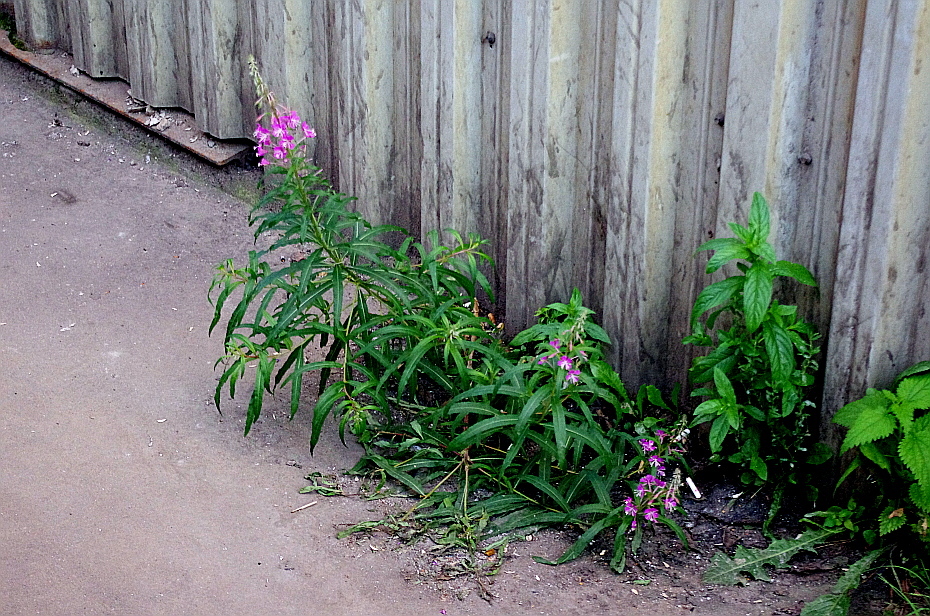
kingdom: Plantae
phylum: Tracheophyta
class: Magnoliopsida
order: Myrtales
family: Onagraceae
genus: Chamaenerion
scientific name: Chamaenerion angustifolium
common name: Fireweed
